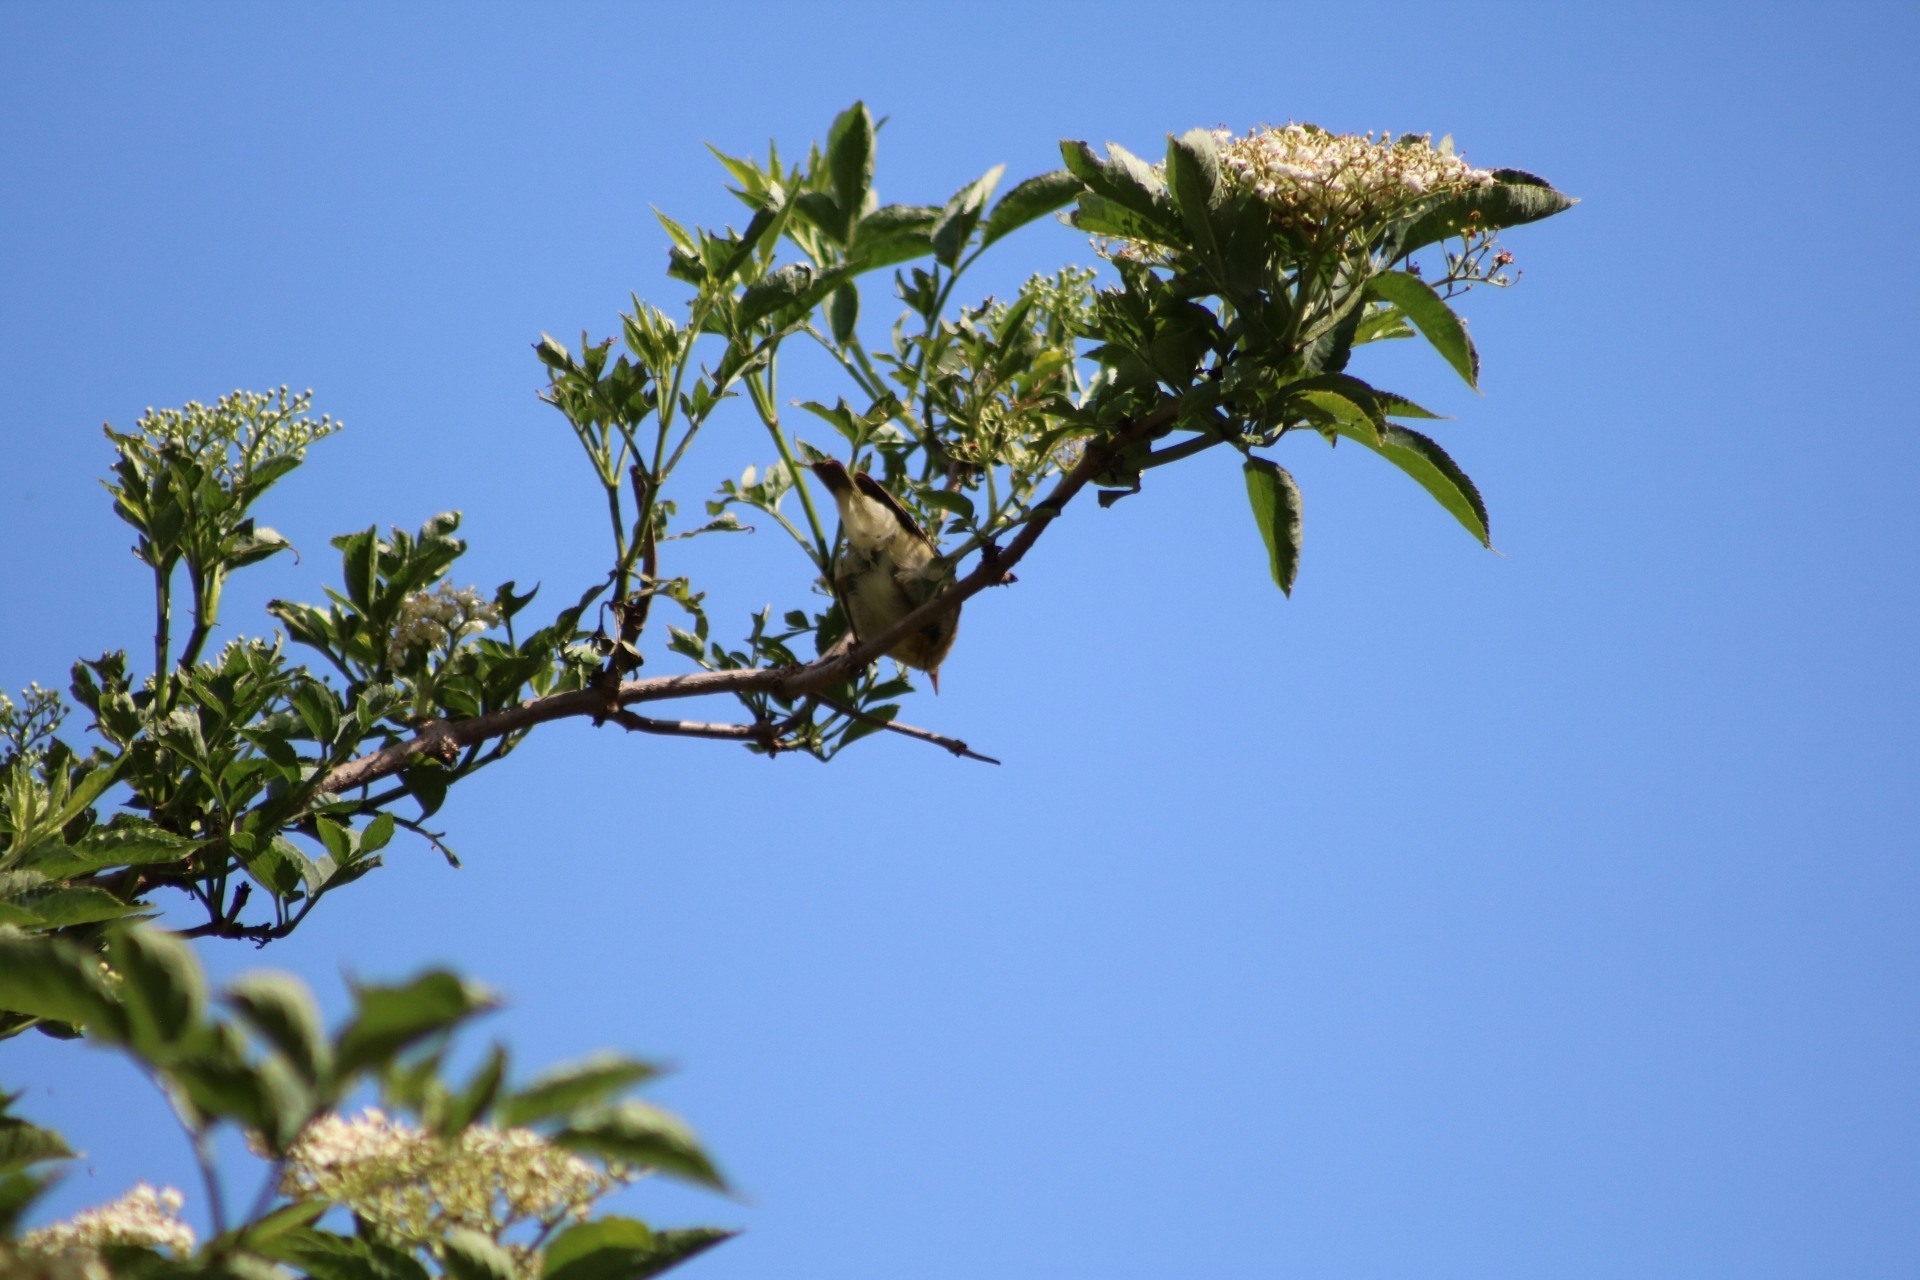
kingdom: Animalia
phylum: Chordata
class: Aves
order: Passeriformes
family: Phylloscopidae
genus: Phylloscopus
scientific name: Phylloscopus collybita
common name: Common chiffchaff
